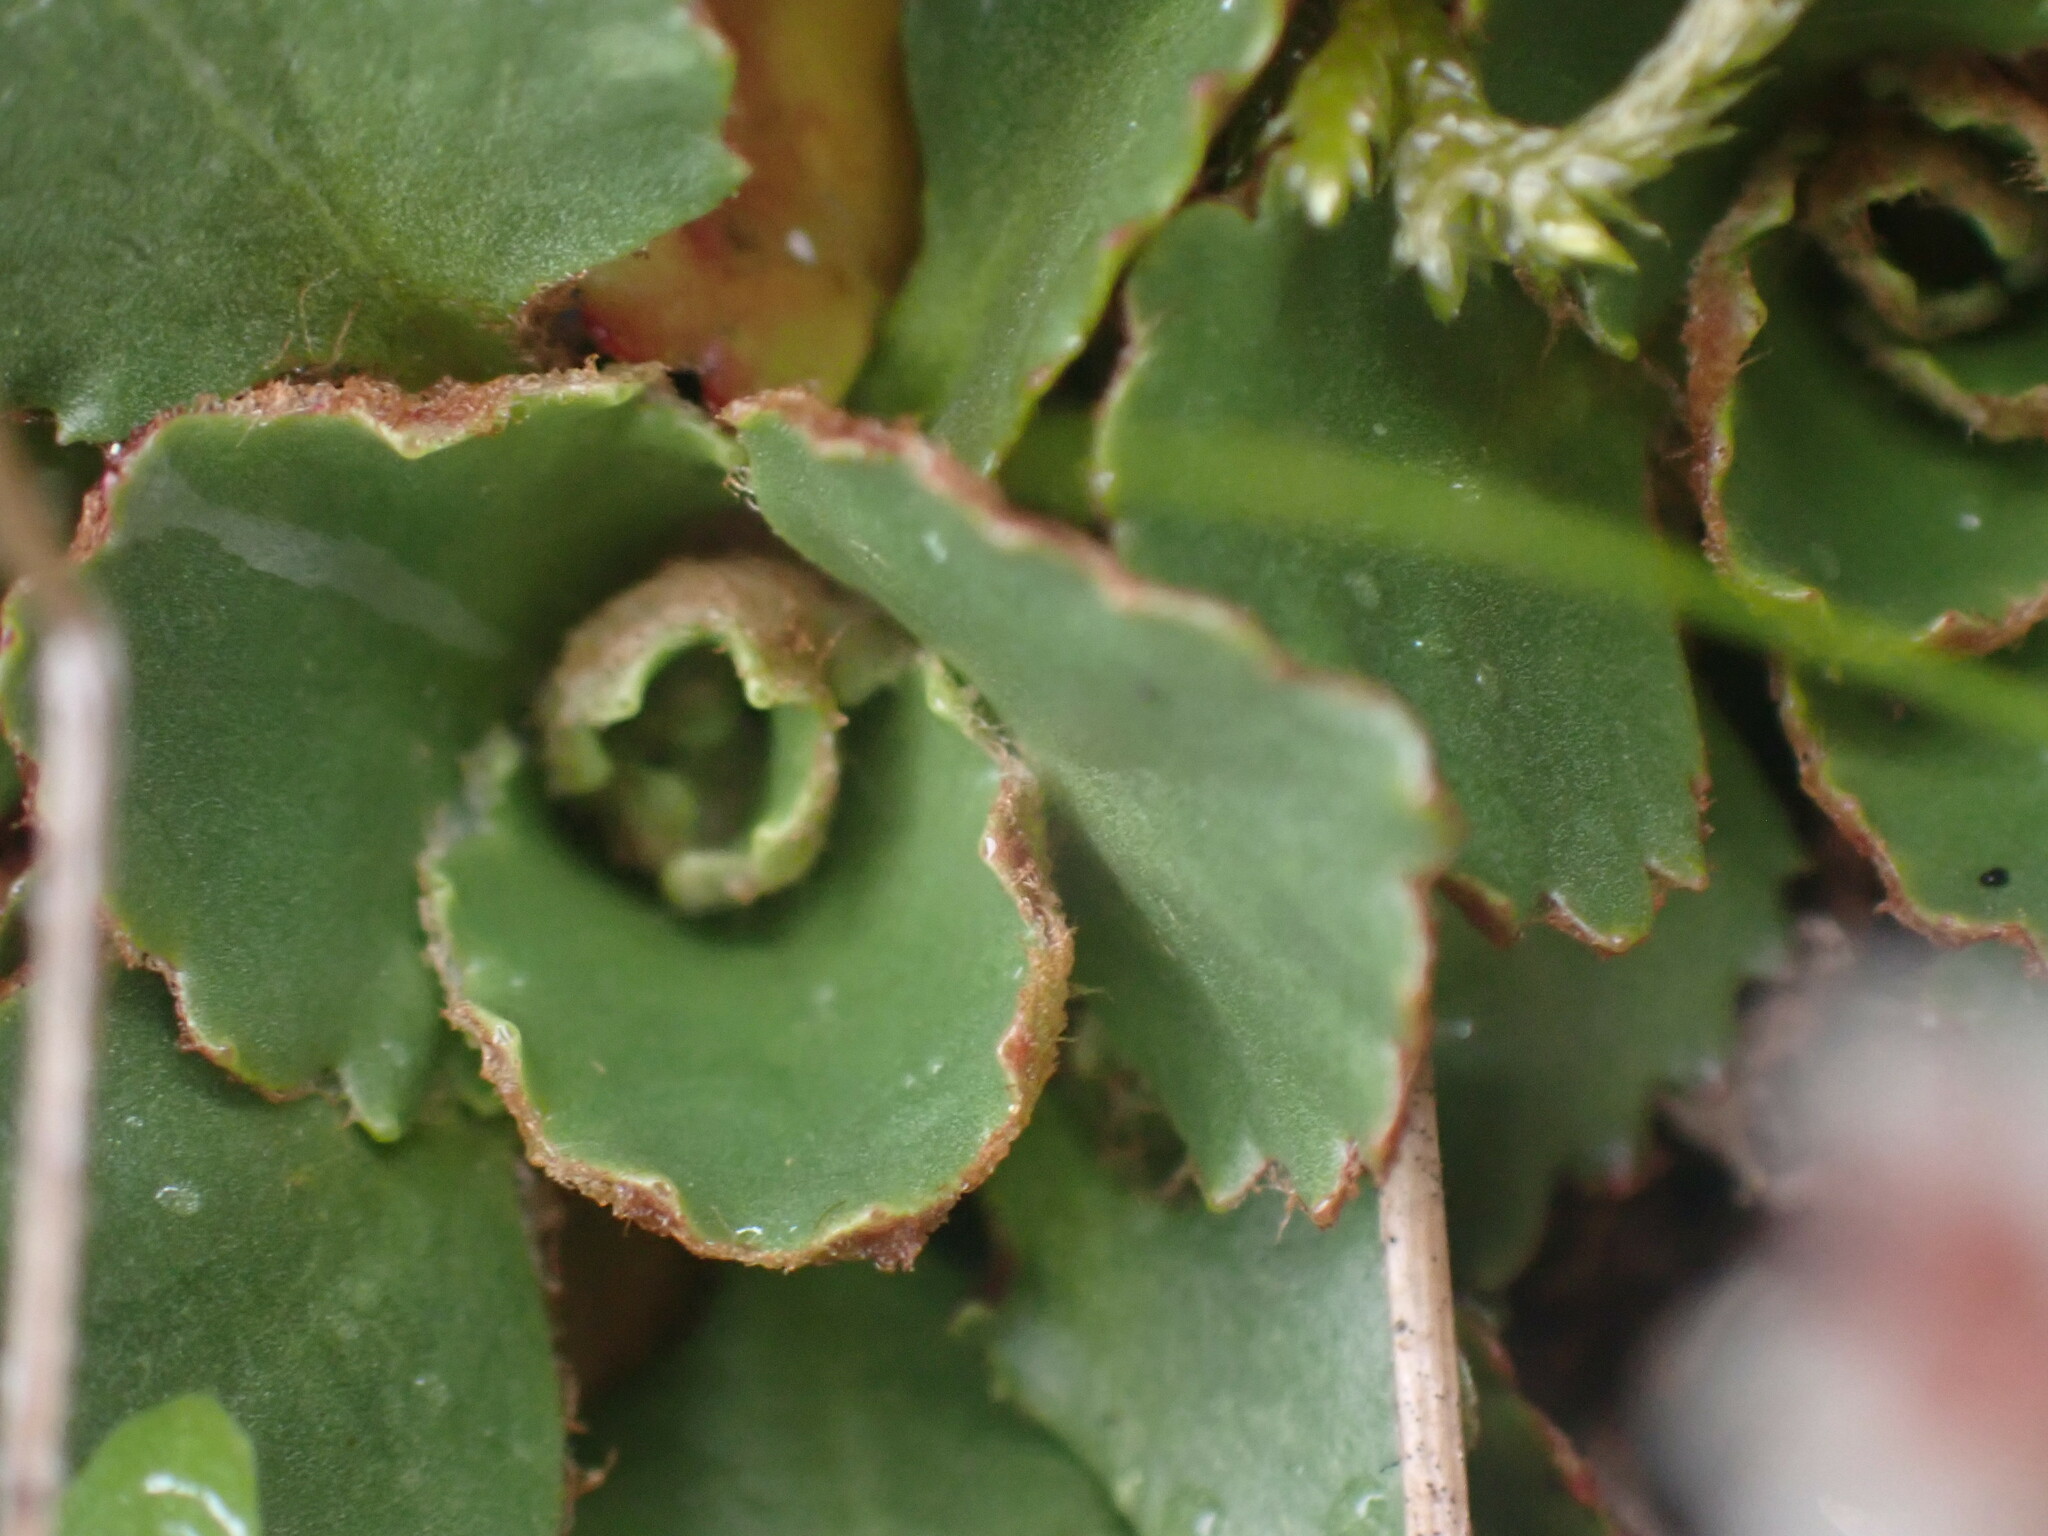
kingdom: Plantae
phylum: Tracheophyta
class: Magnoliopsida
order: Saxifragales
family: Saxifragaceae
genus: Micranthes
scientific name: Micranthes rufidula
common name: Rustyhair saxifrage
